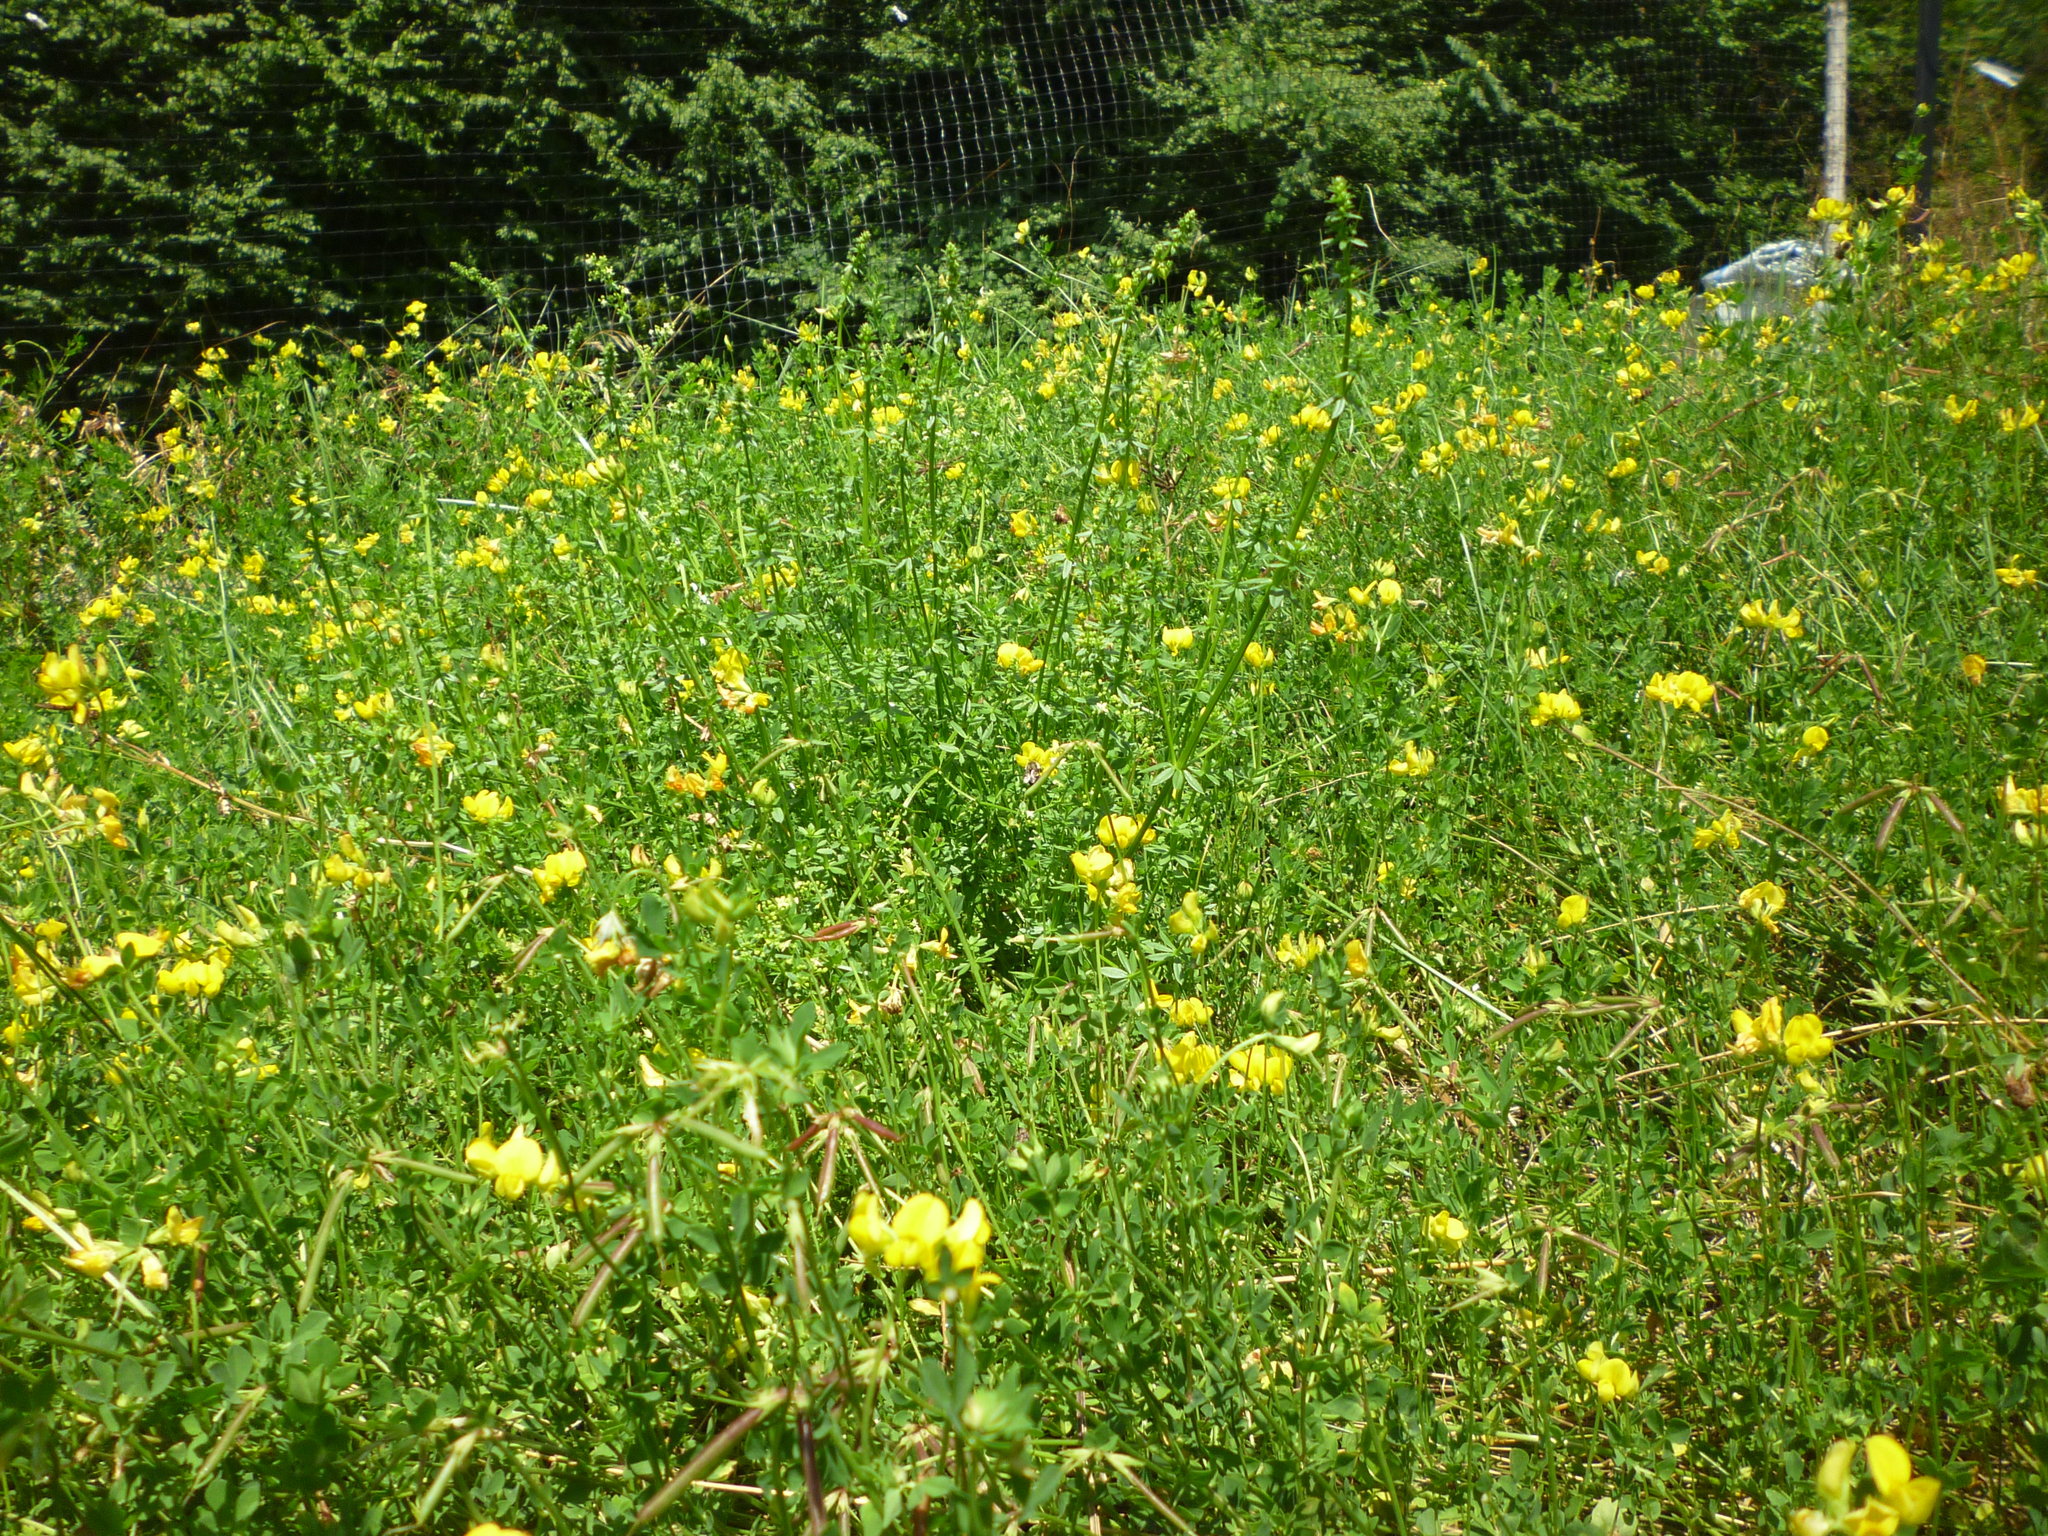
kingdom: Plantae
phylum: Tracheophyta
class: Magnoliopsida
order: Fabales
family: Fabaceae
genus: Lotus
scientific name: Lotus corniculatus
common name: Common bird's-foot-trefoil
